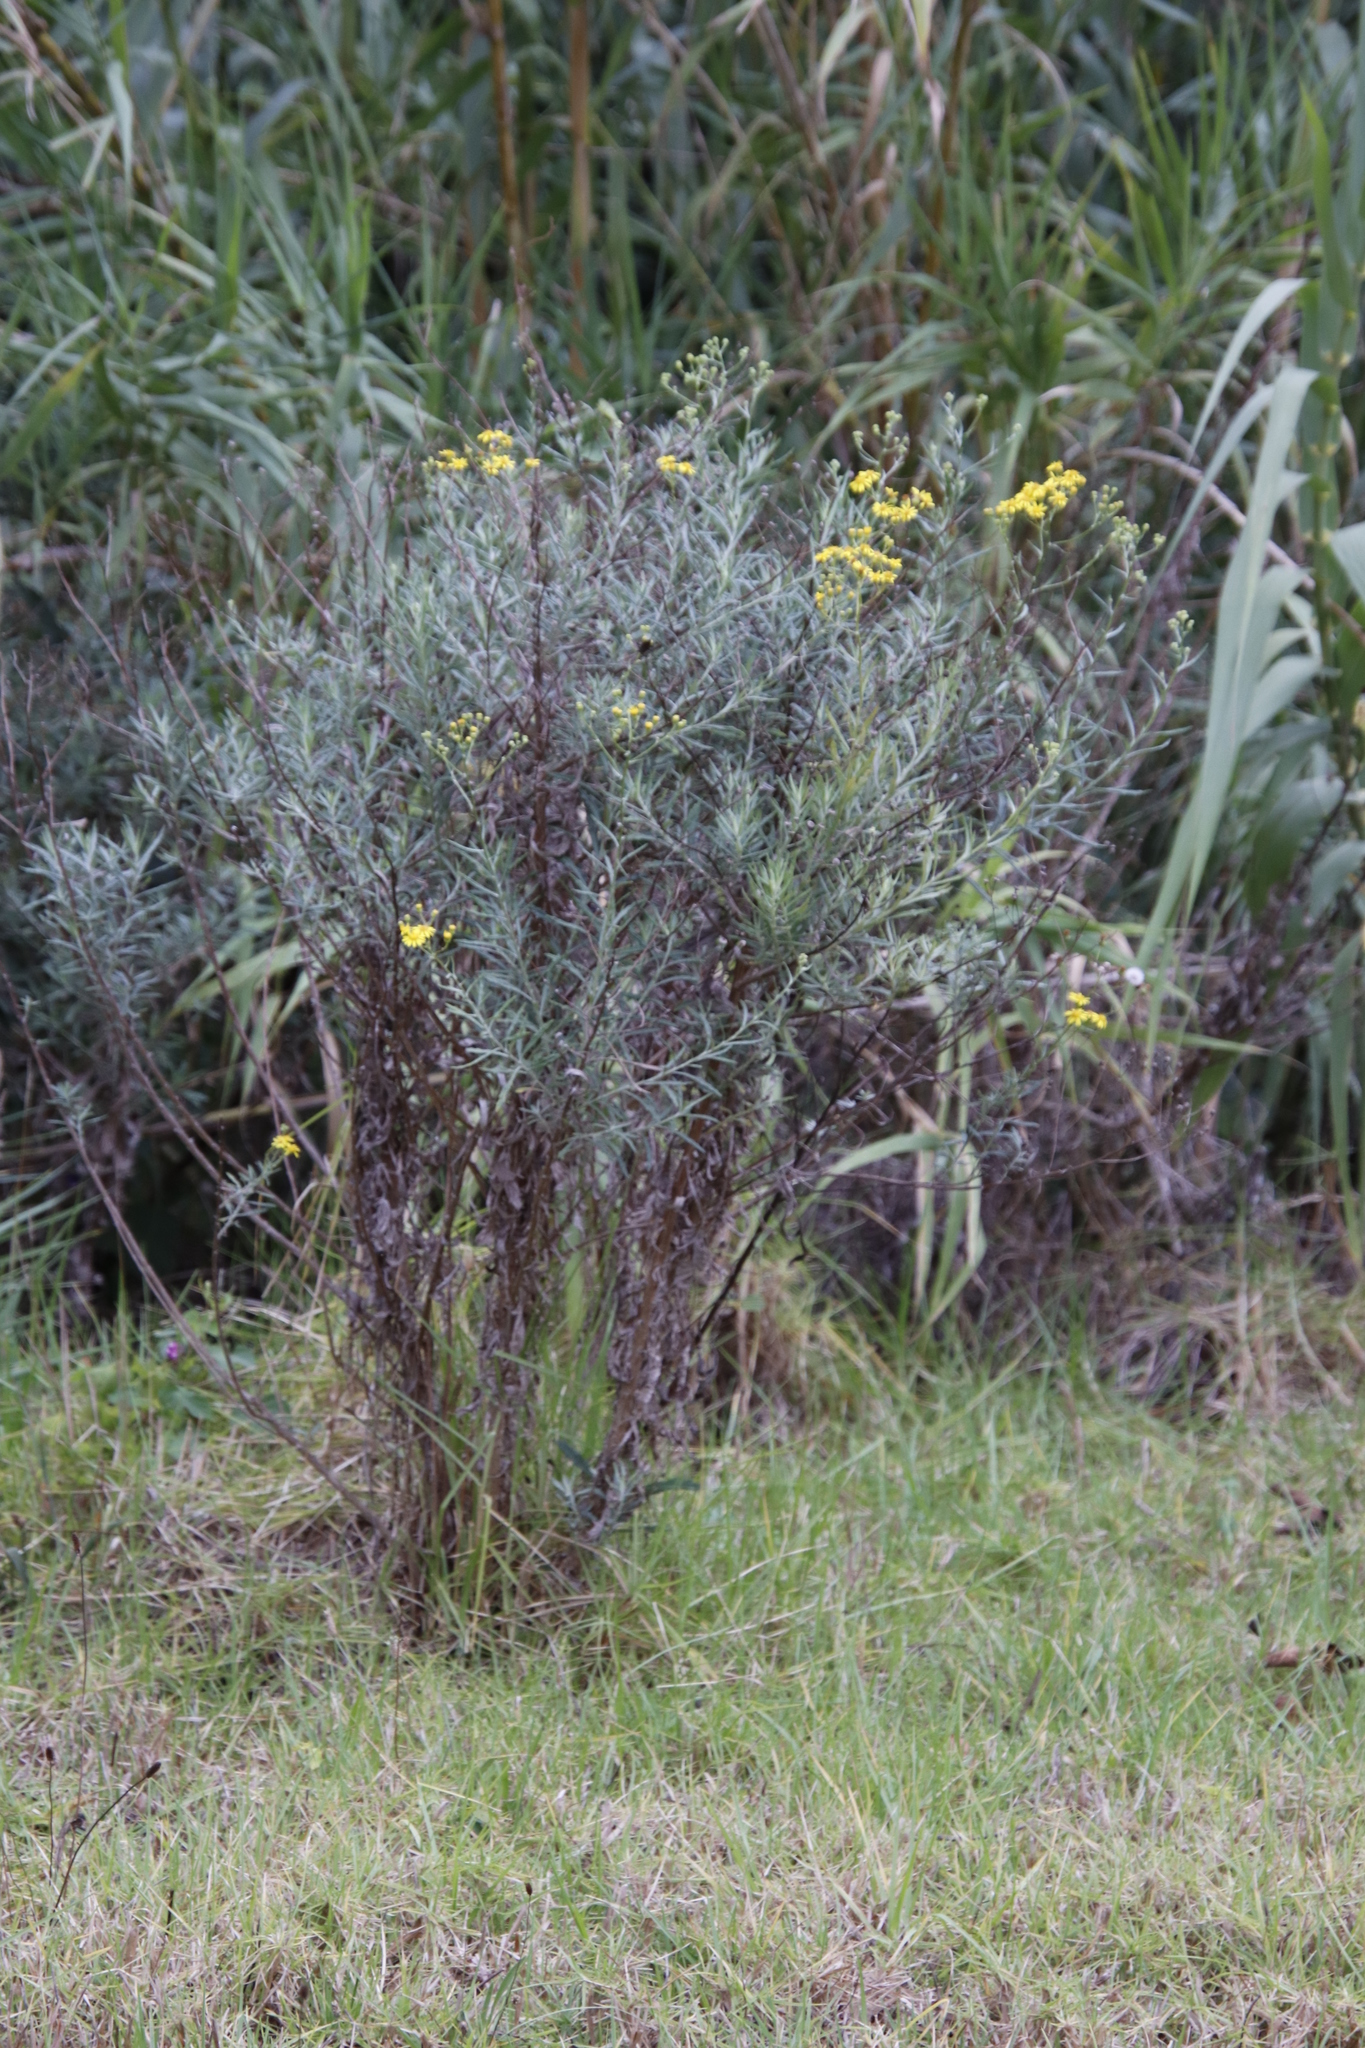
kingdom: Plantae
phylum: Tracheophyta
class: Magnoliopsida
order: Asterales
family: Asteraceae
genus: Senecio
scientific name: Senecio pterophorus
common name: Shoddy ragwort
